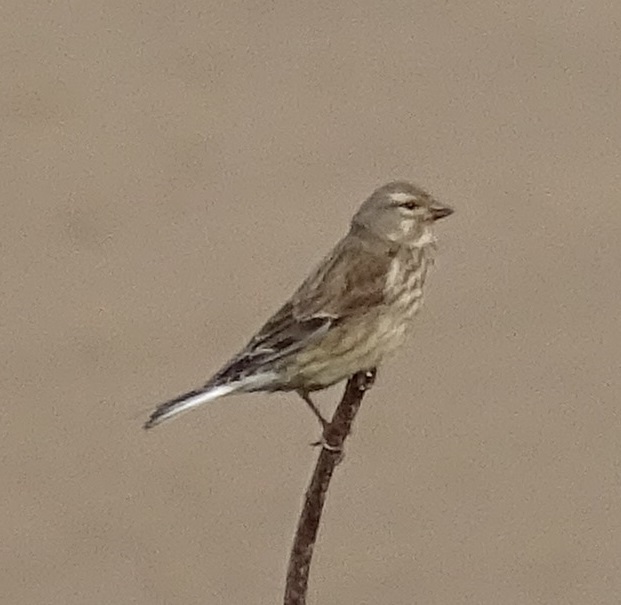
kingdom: Animalia
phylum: Chordata
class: Aves
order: Passeriformes
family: Fringillidae
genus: Linaria
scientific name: Linaria cannabina
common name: Common linnet
